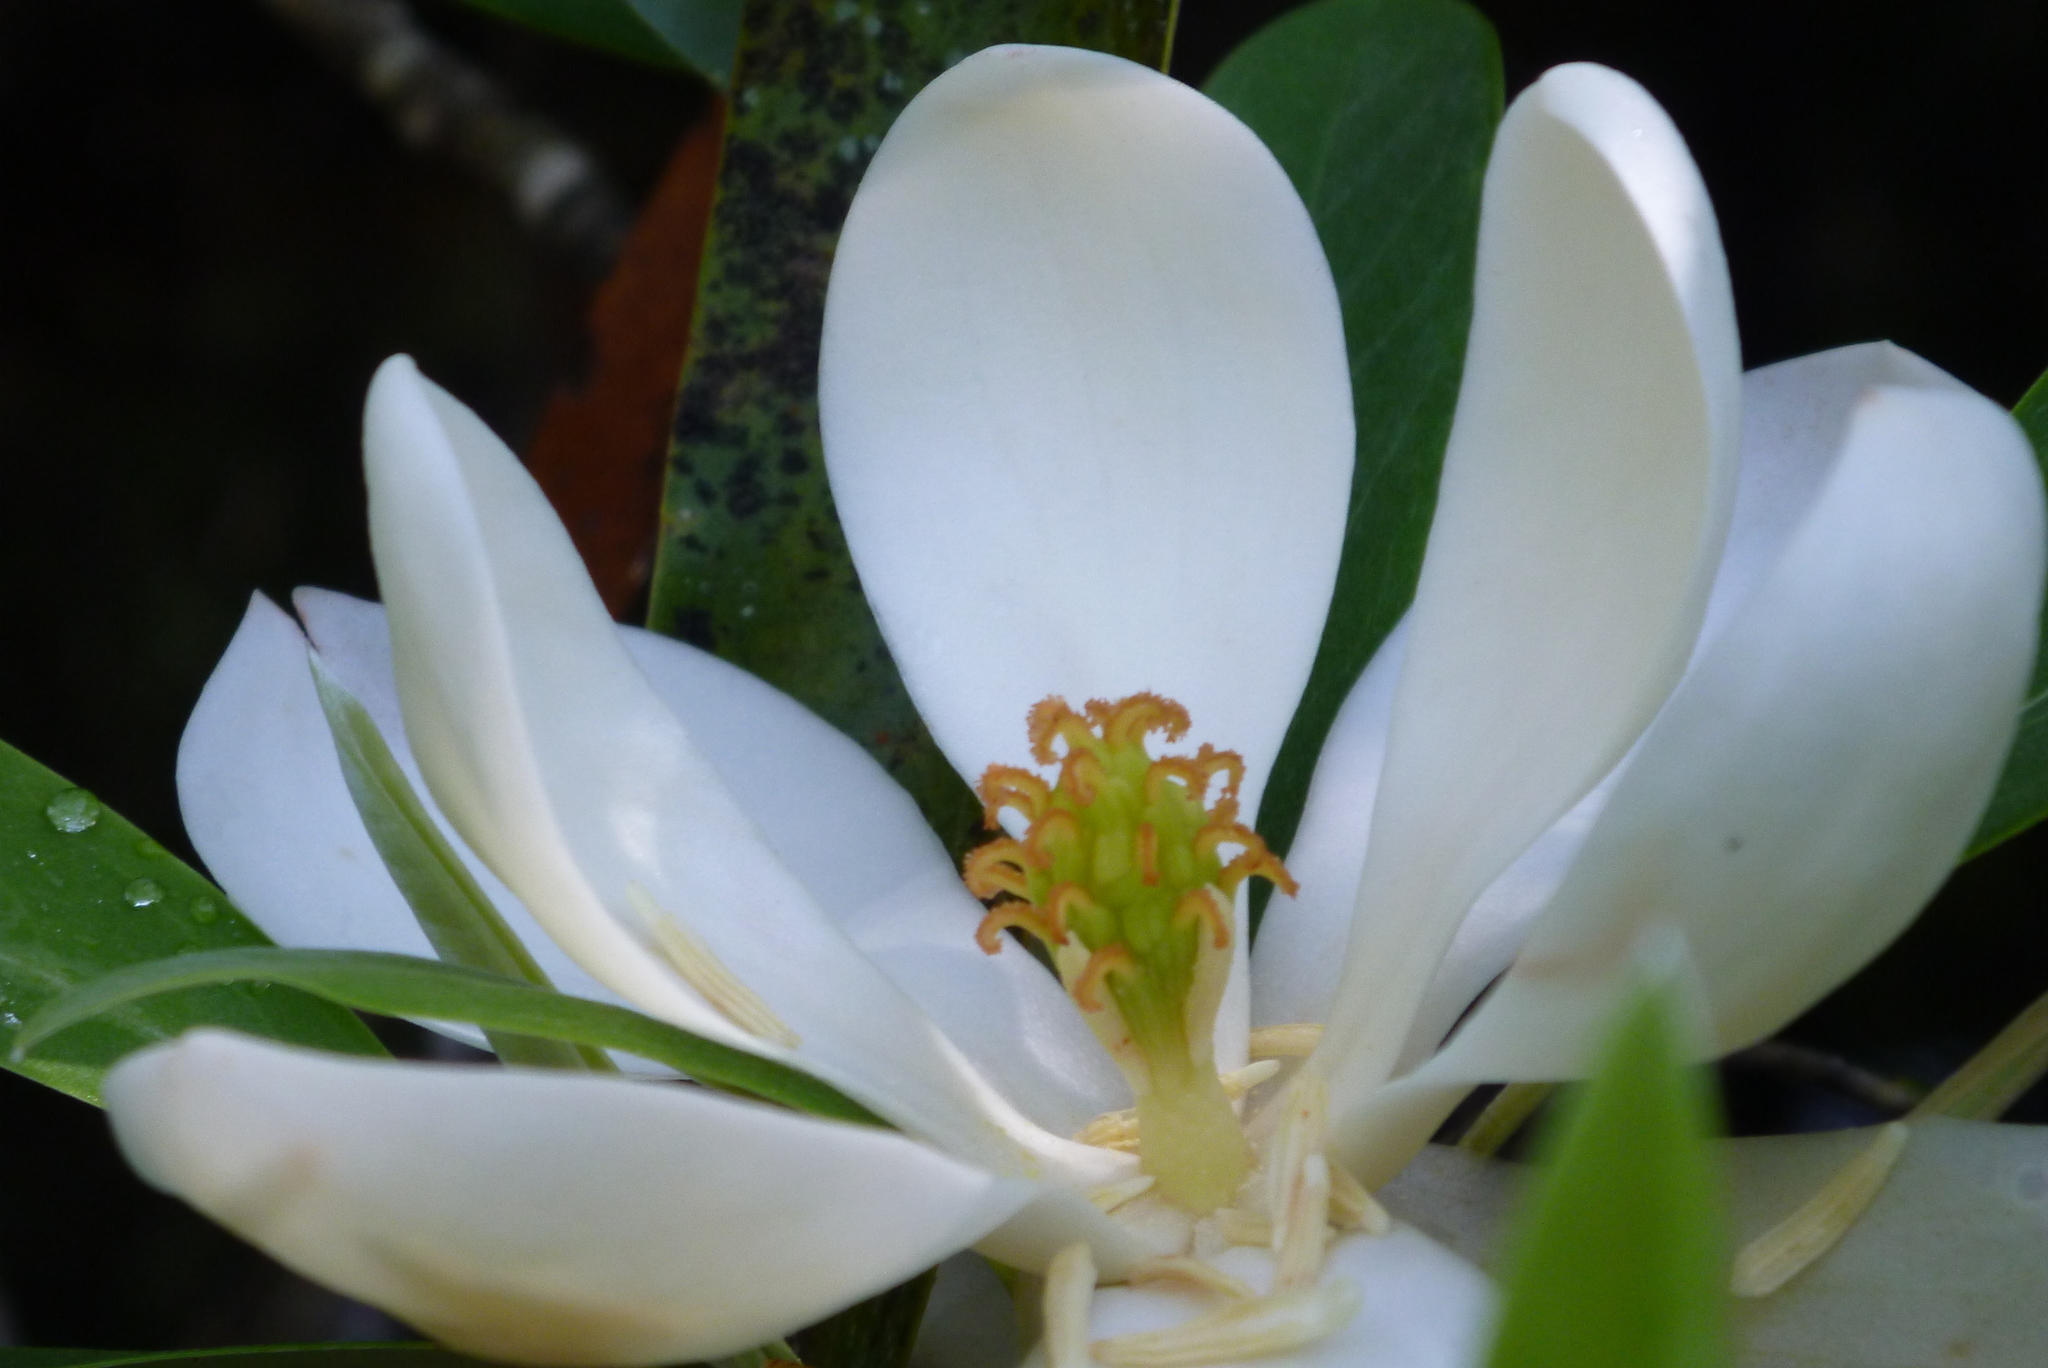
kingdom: Plantae
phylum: Tracheophyta
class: Magnoliopsida
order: Magnoliales
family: Magnoliaceae
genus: Magnolia
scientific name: Magnolia virginiana
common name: Swamp bay
